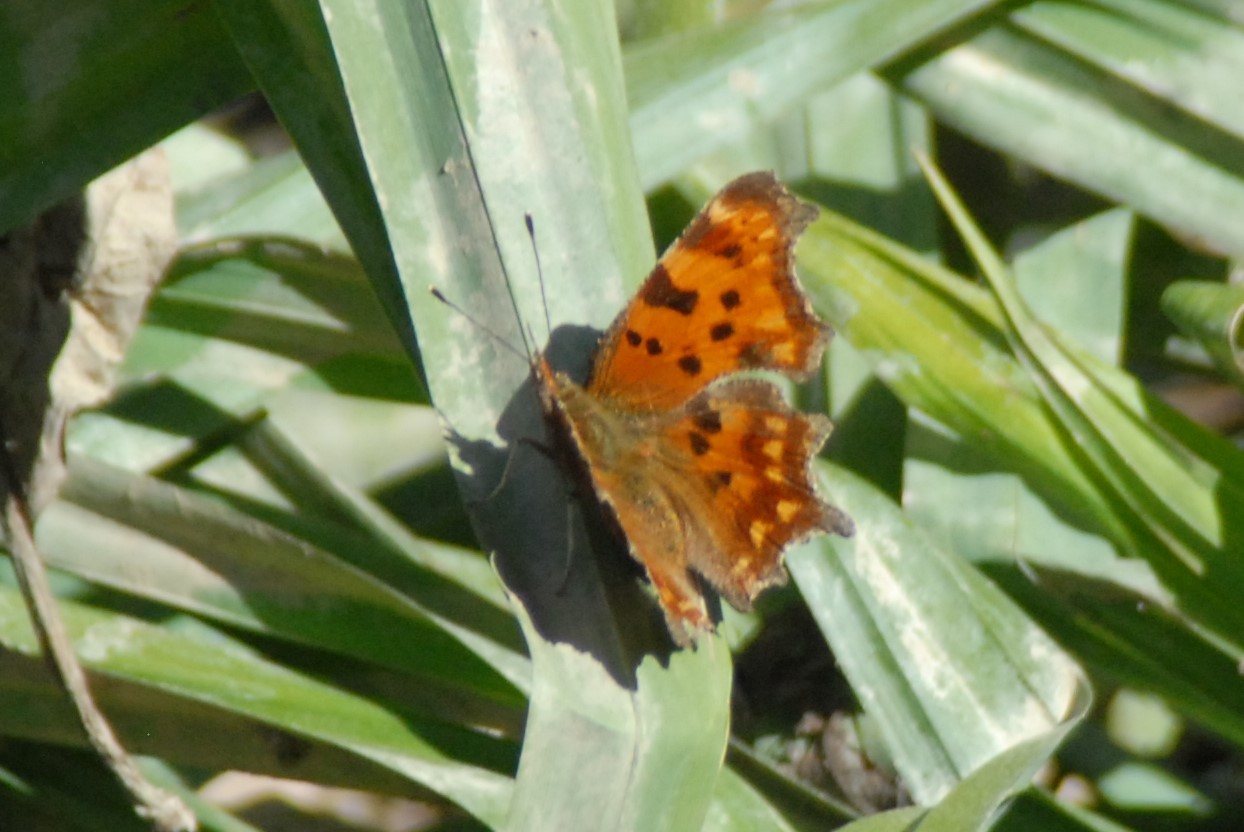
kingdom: Animalia
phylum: Arthropoda
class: Insecta
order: Lepidoptera
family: Nymphalidae
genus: Polygonia
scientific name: Polygonia c-album
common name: Comma
